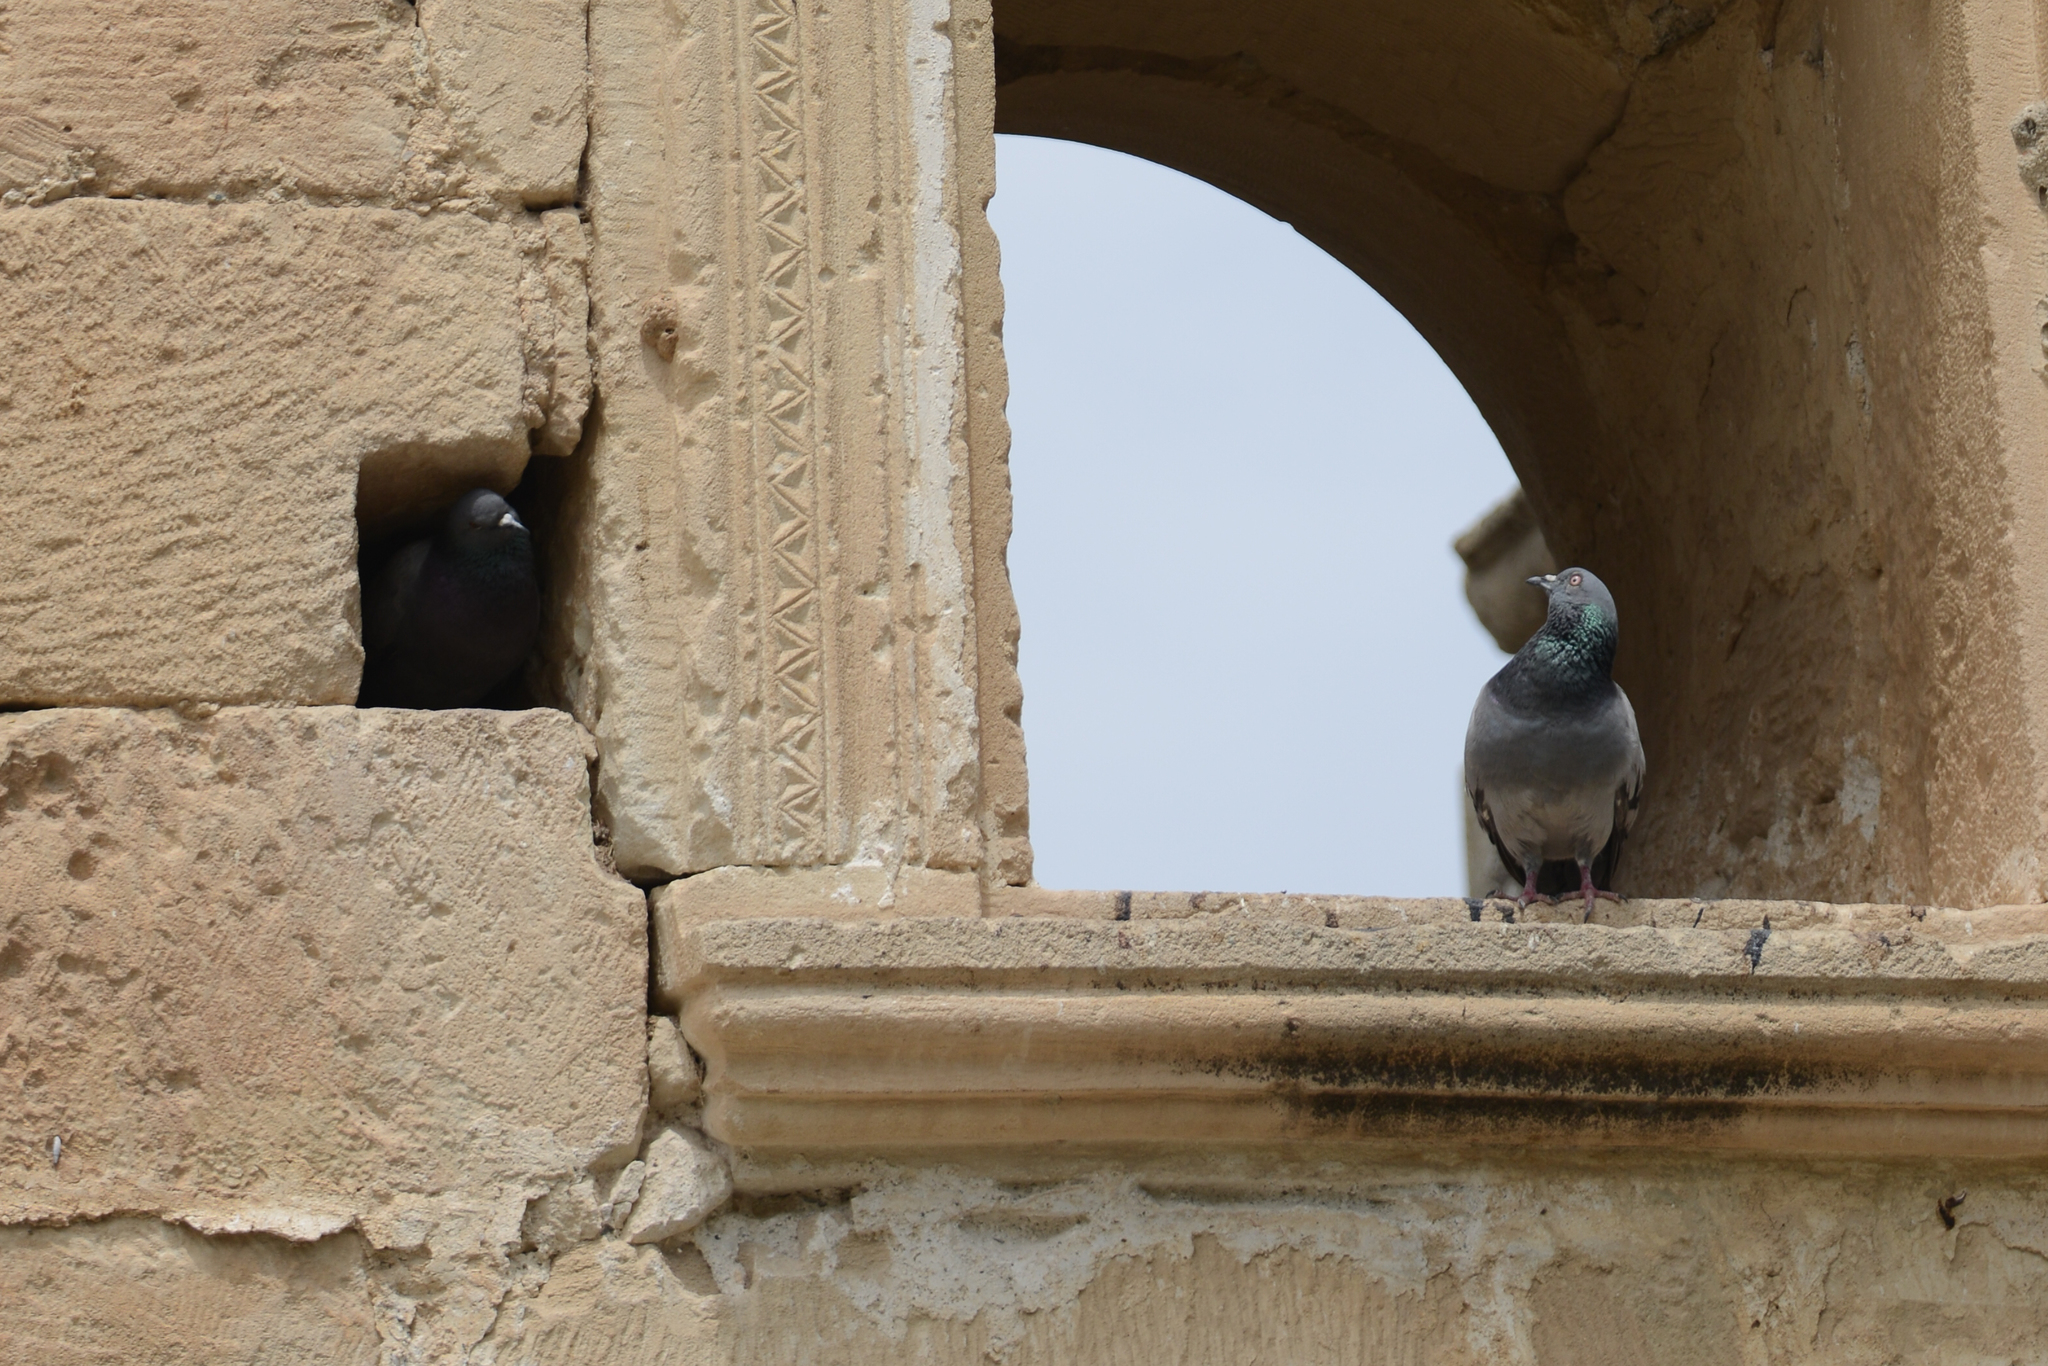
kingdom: Animalia
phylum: Chordata
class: Aves
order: Columbiformes
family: Columbidae
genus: Columba
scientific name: Columba livia
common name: Rock pigeon
